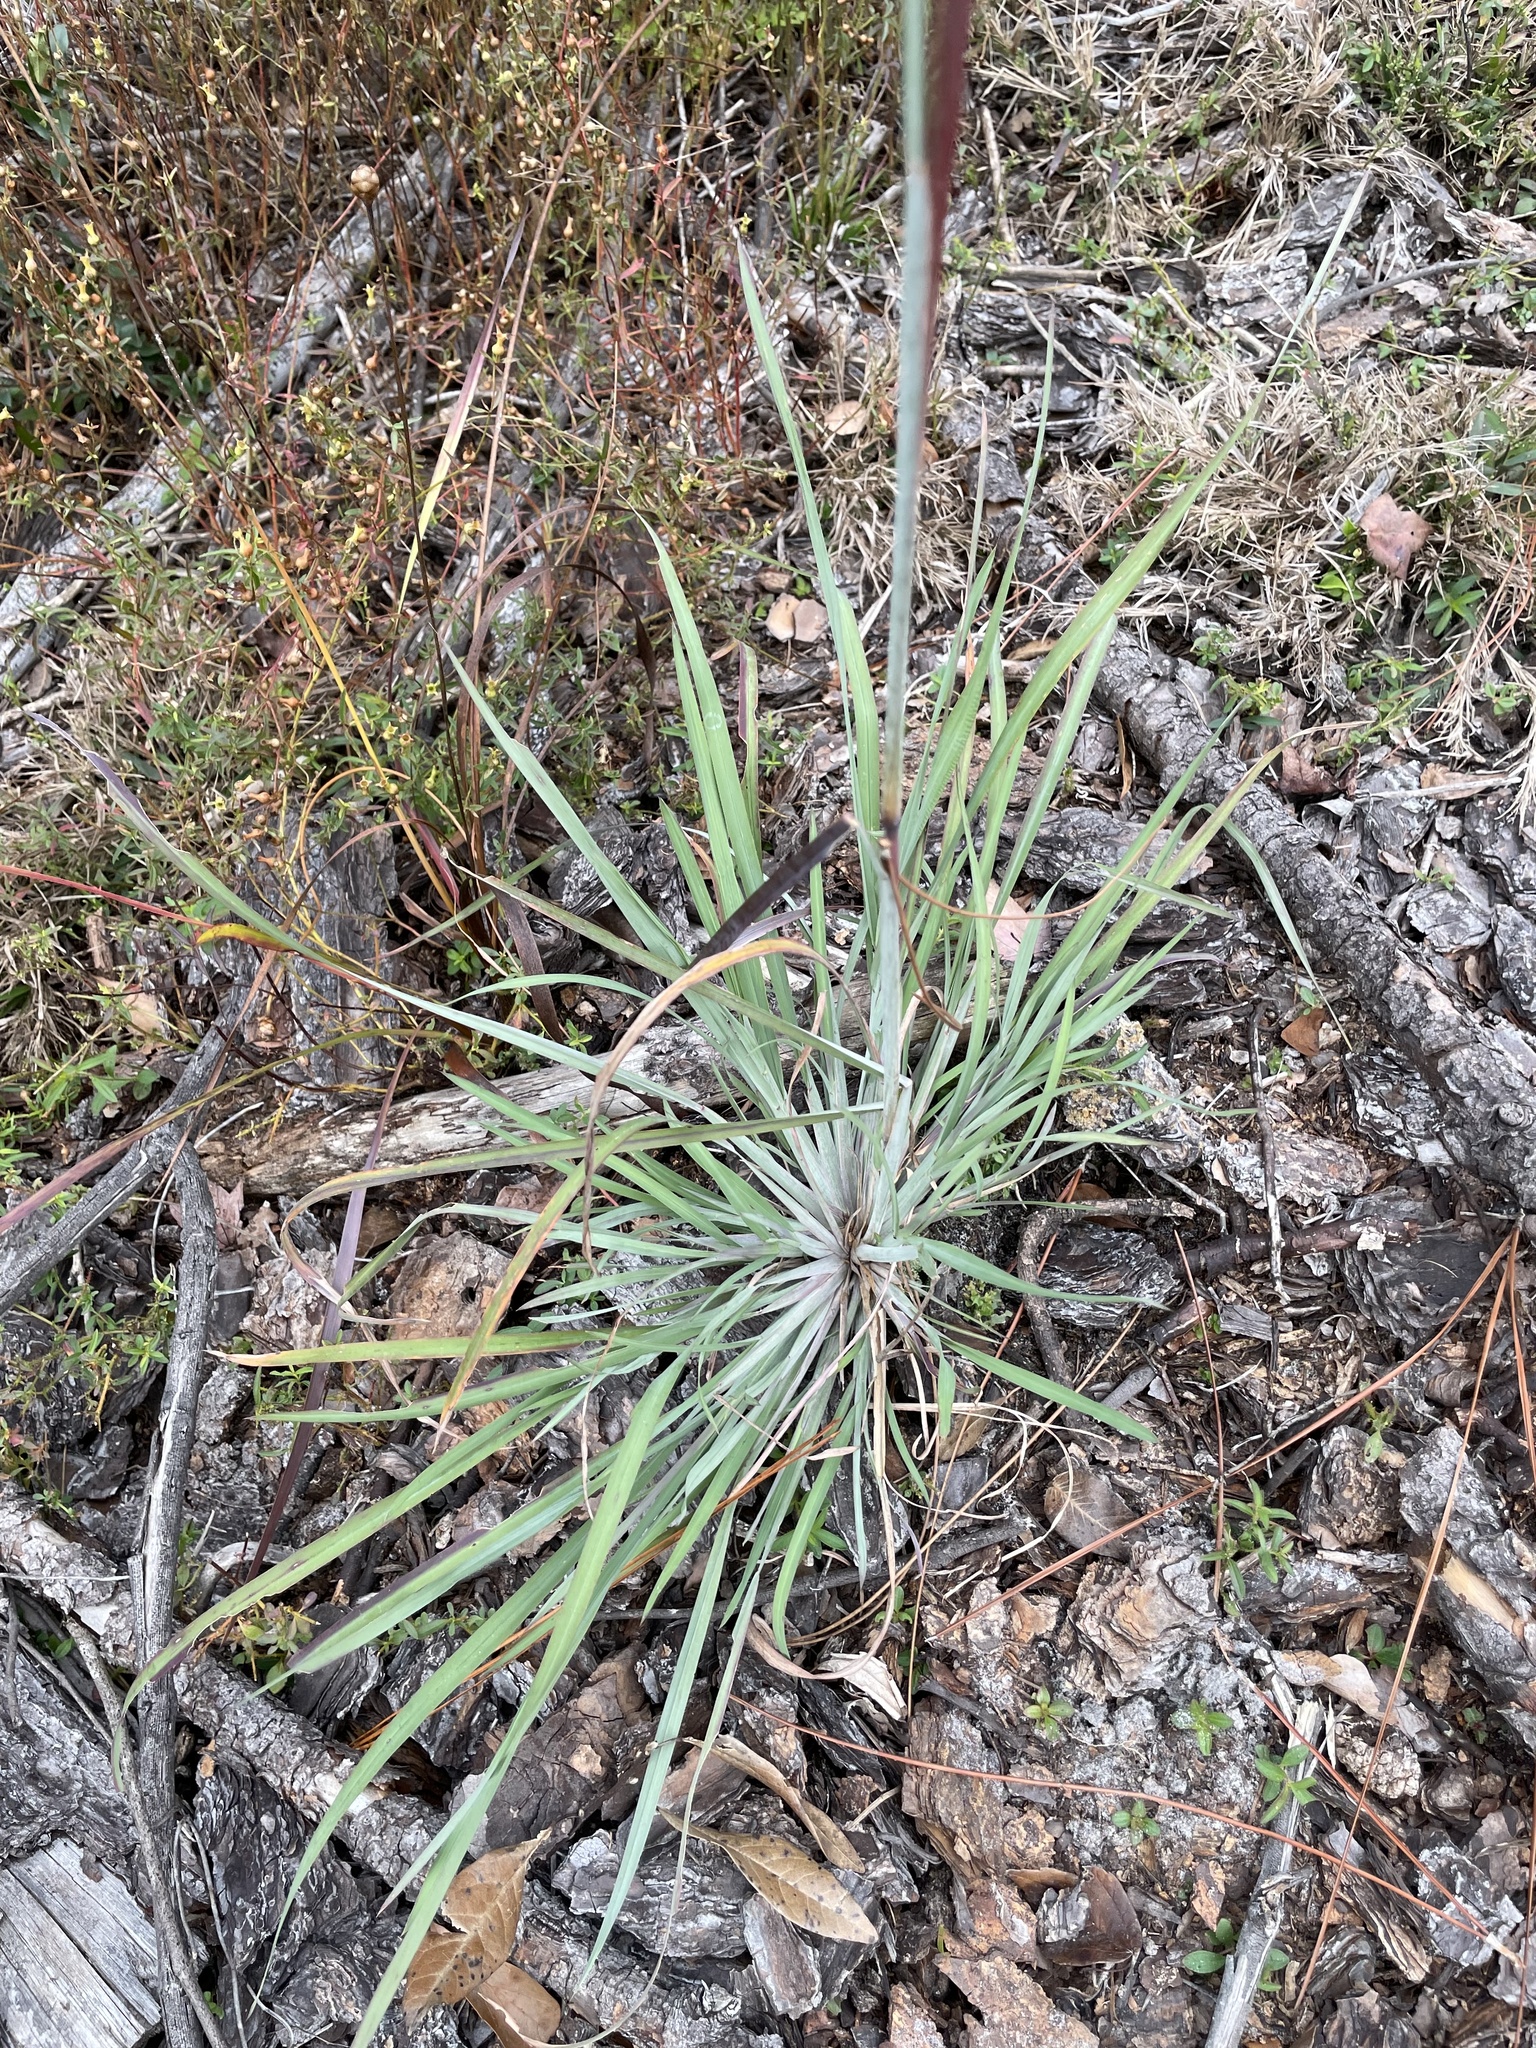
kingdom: Plantae
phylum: Tracheophyta
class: Liliopsida
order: Poales
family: Poaceae
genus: Andropogon
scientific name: Andropogon cretaceus
